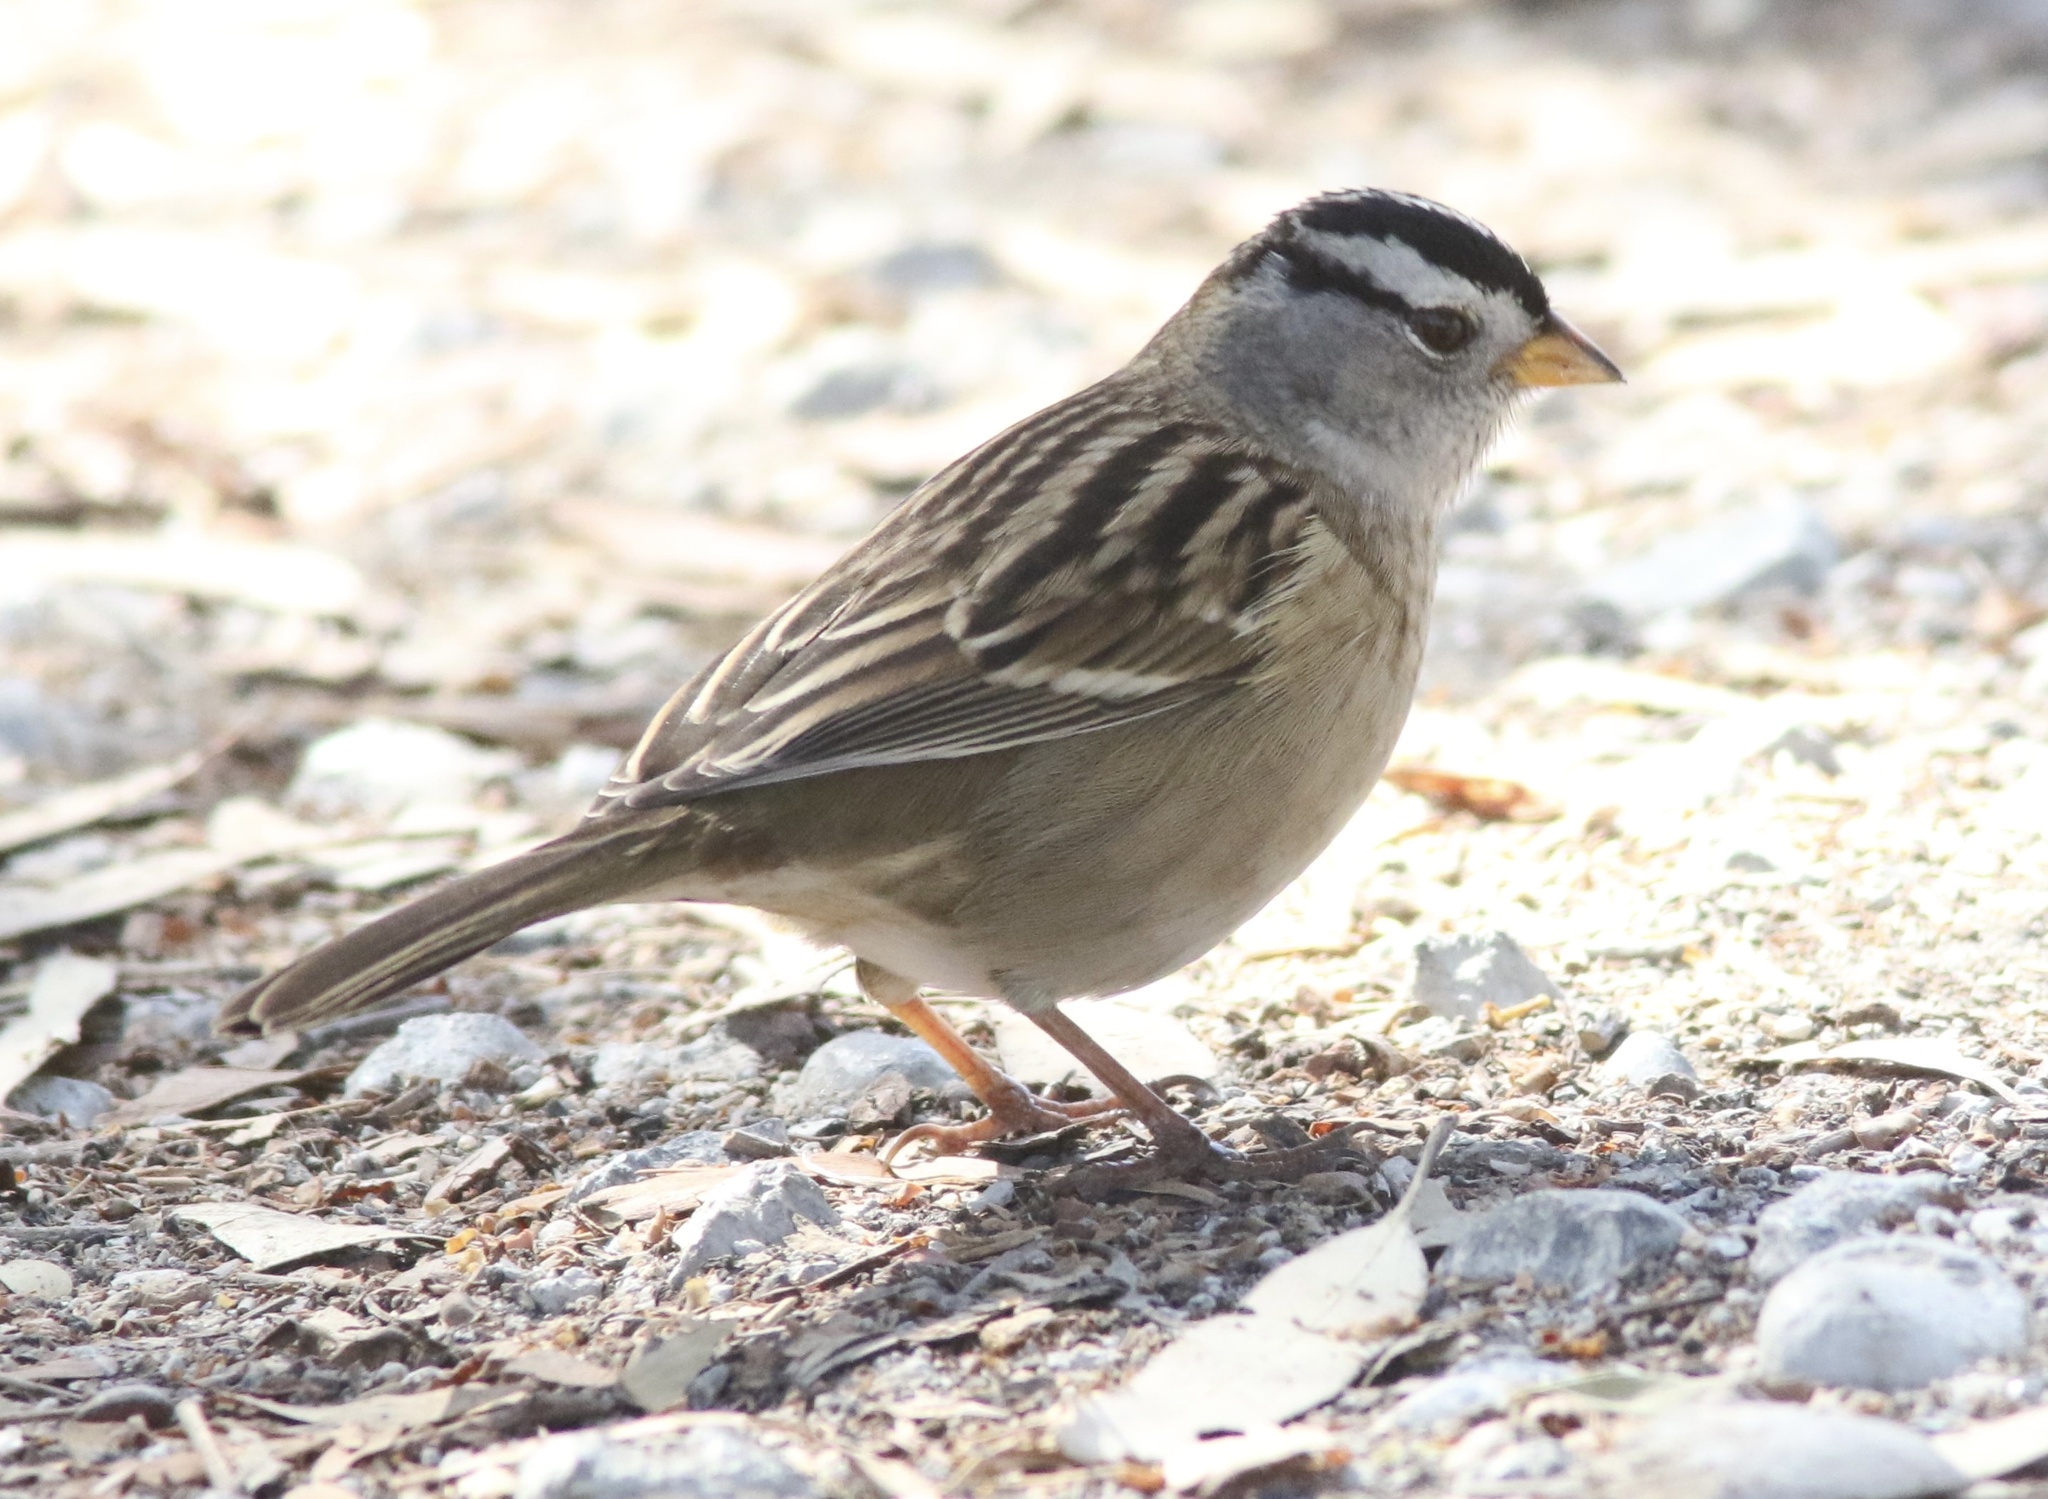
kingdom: Animalia
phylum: Chordata
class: Aves
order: Passeriformes
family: Passerellidae
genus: Zonotrichia
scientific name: Zonotrichia leucophrys
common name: White-crowned sparrow
